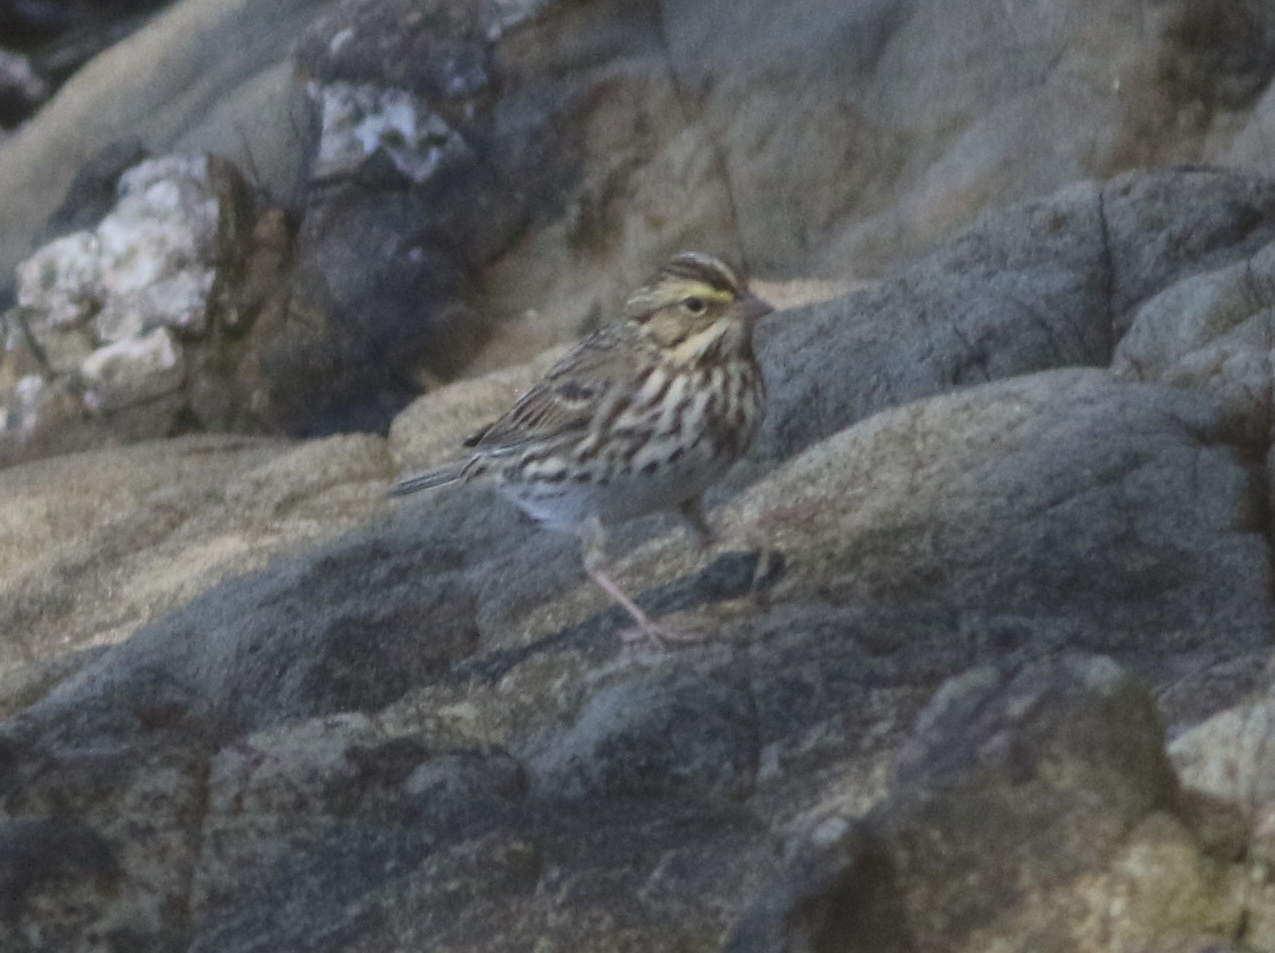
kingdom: Animalia
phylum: Chordata
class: Aves
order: Passeriformes
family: Passerellidae
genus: Passerculus
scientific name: Passerculus sandwichensis
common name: Savannah sparrow
